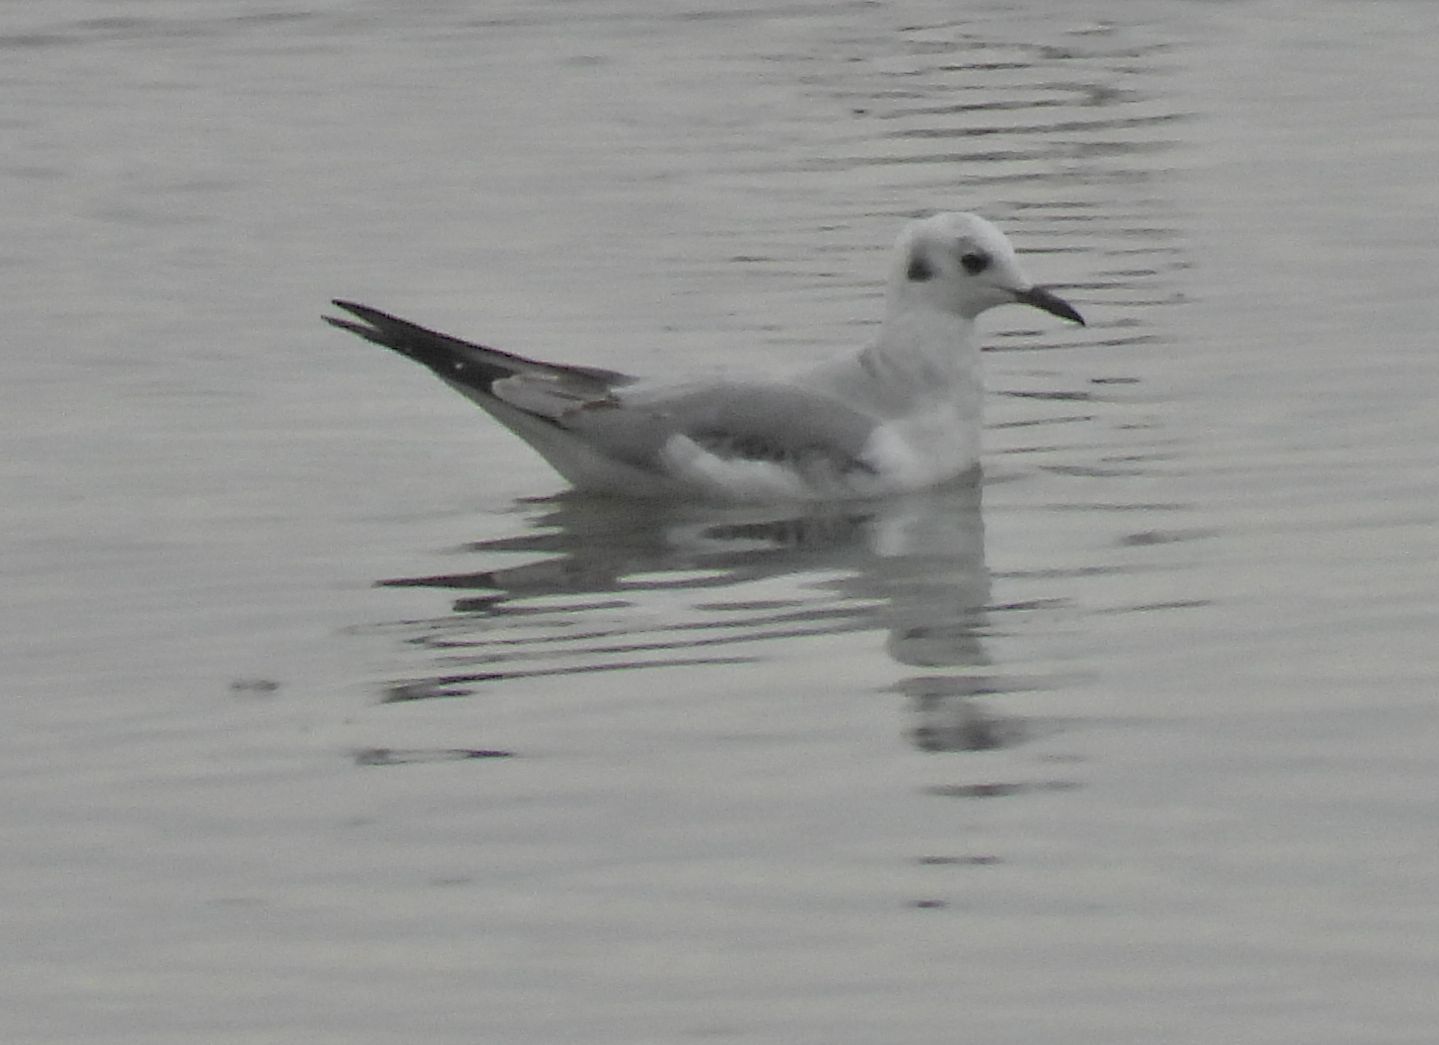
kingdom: Animalia
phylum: Chordata
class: Aves
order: Charadriiformes
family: Laridae
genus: Chroicocephalus
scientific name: Chroicocephalus philadelphia
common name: Bonaparte's gull
